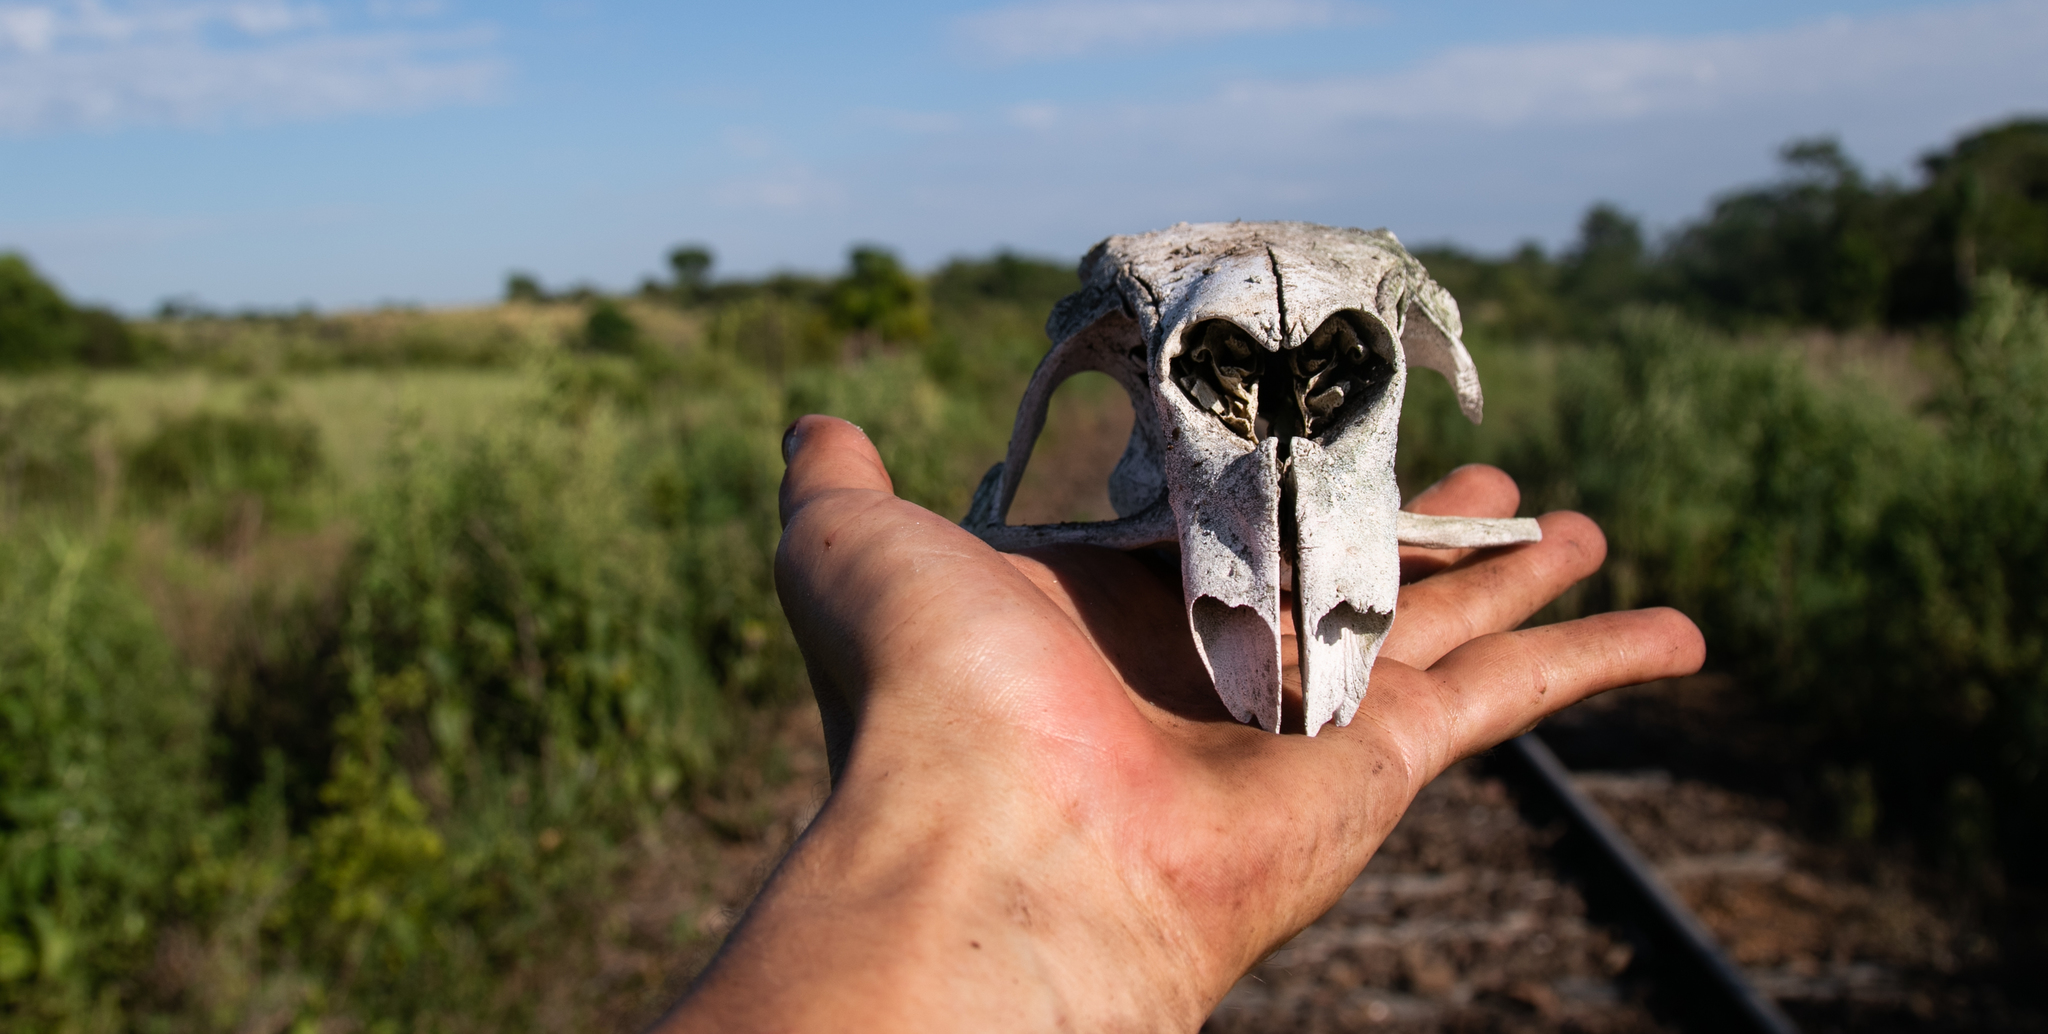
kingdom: Animalia
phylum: Chordata
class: Mammalia
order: Rodentia
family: Caviidae
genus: Hydrochoerus
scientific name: Hydrochoerus hydrochaeris
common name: Capybara
